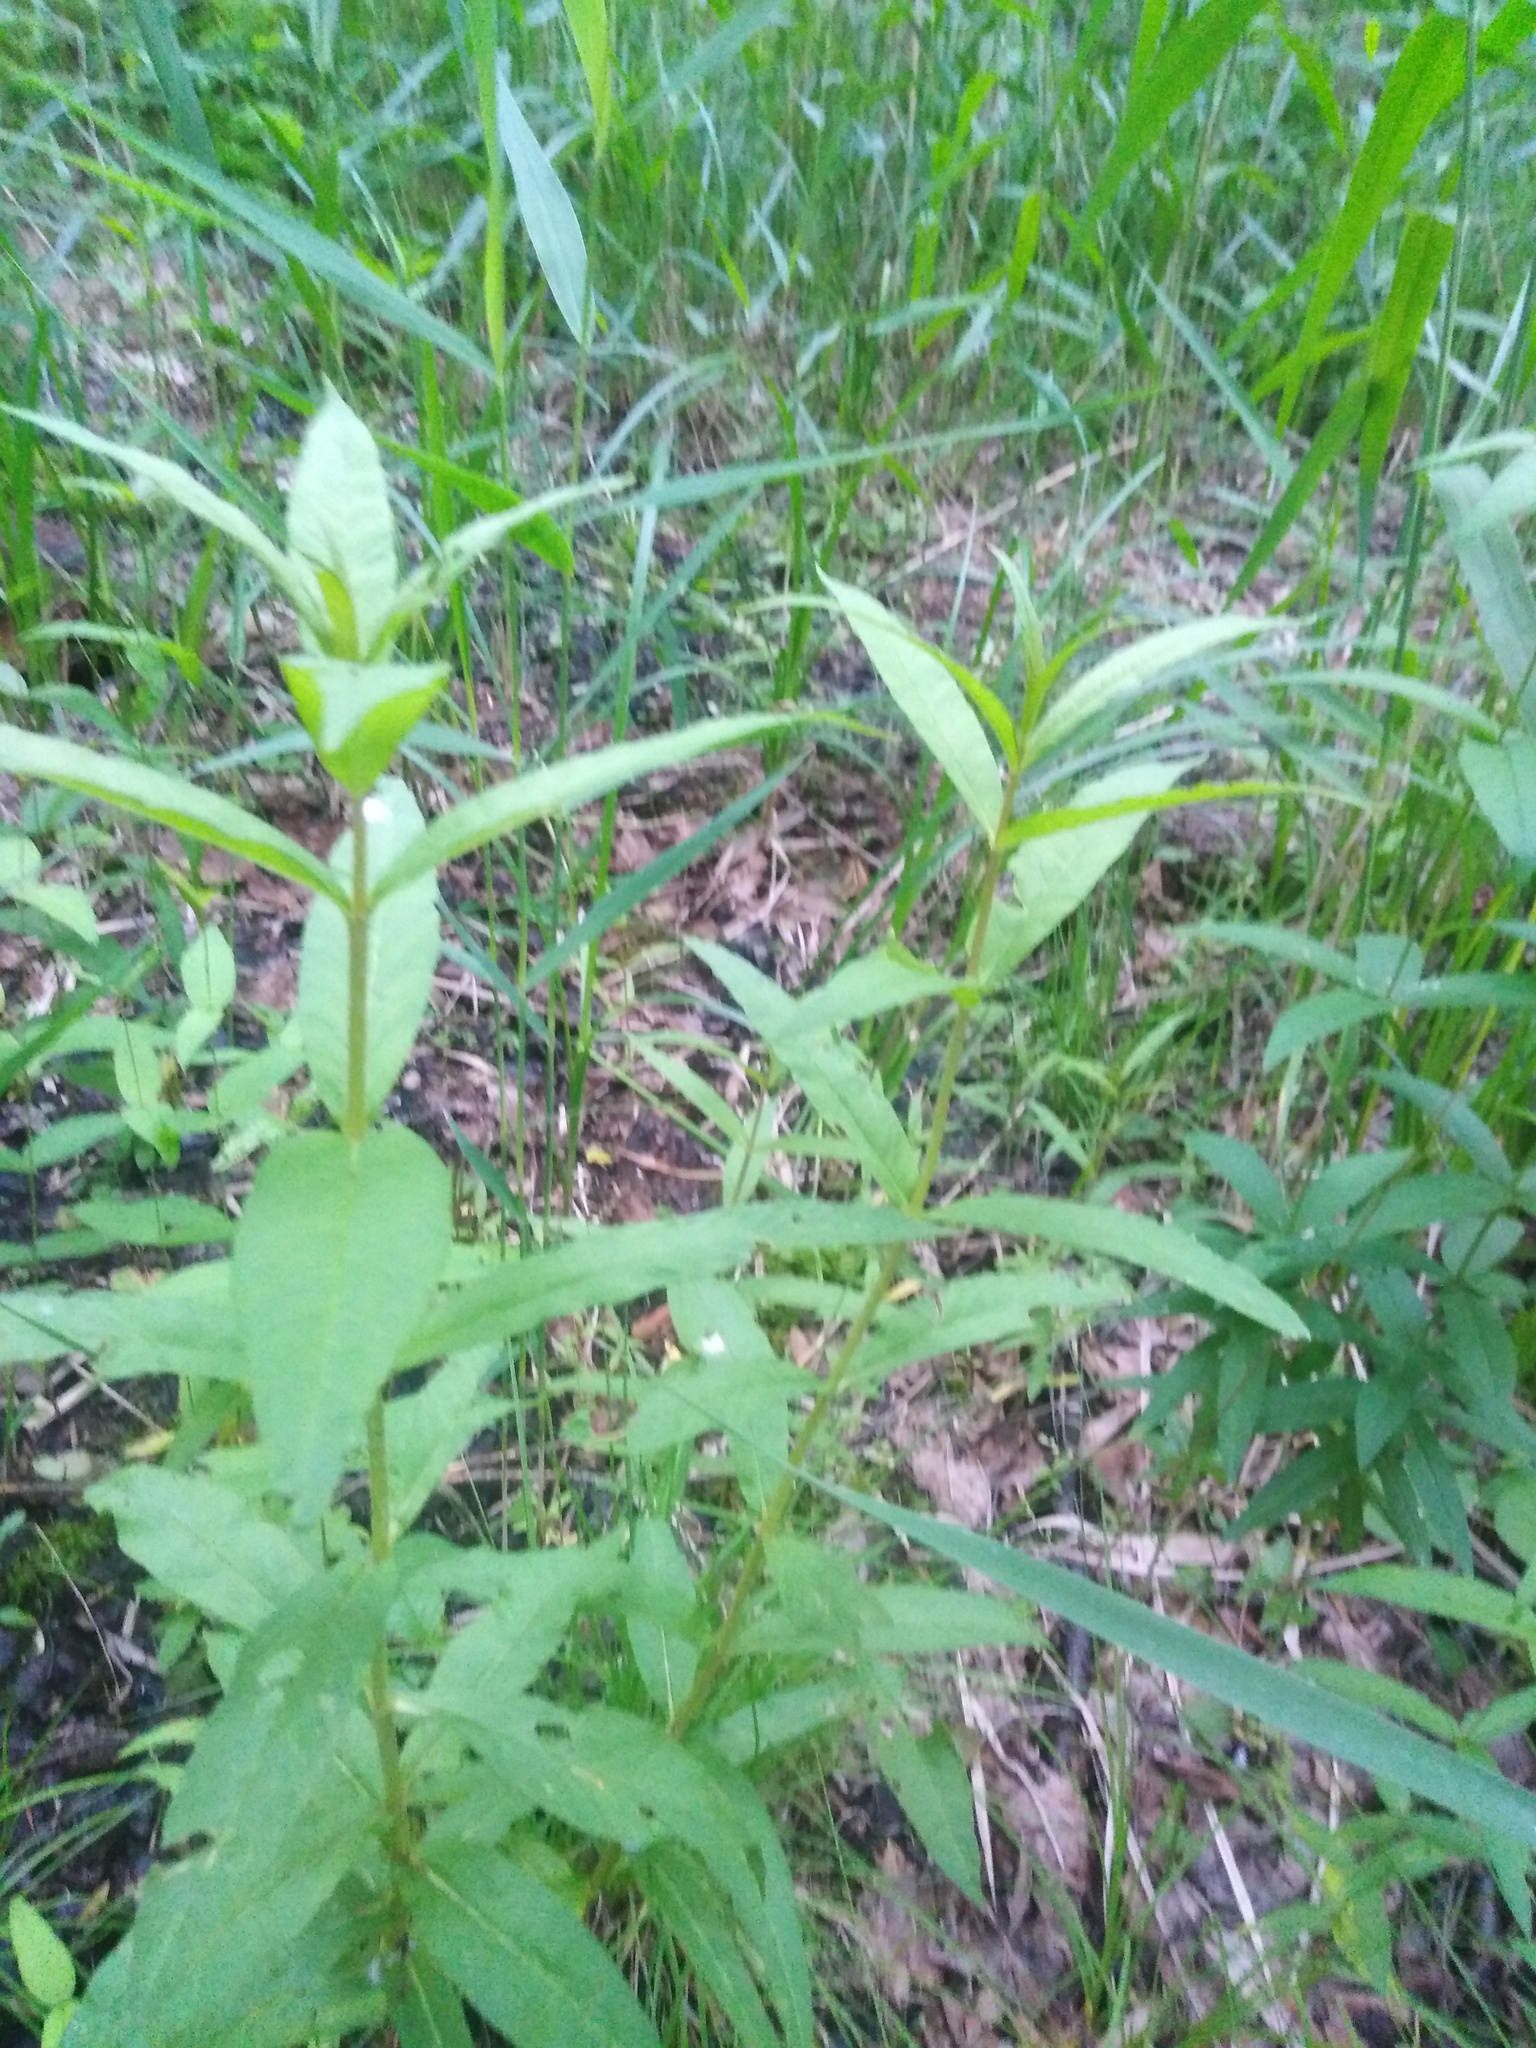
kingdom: Plantae
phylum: Tracheophyta
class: Magnoliopsida
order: Ericales
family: Primulaceae
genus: Lysimachia
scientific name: Lysimachia vulgaris
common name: Yellow loosestrife
